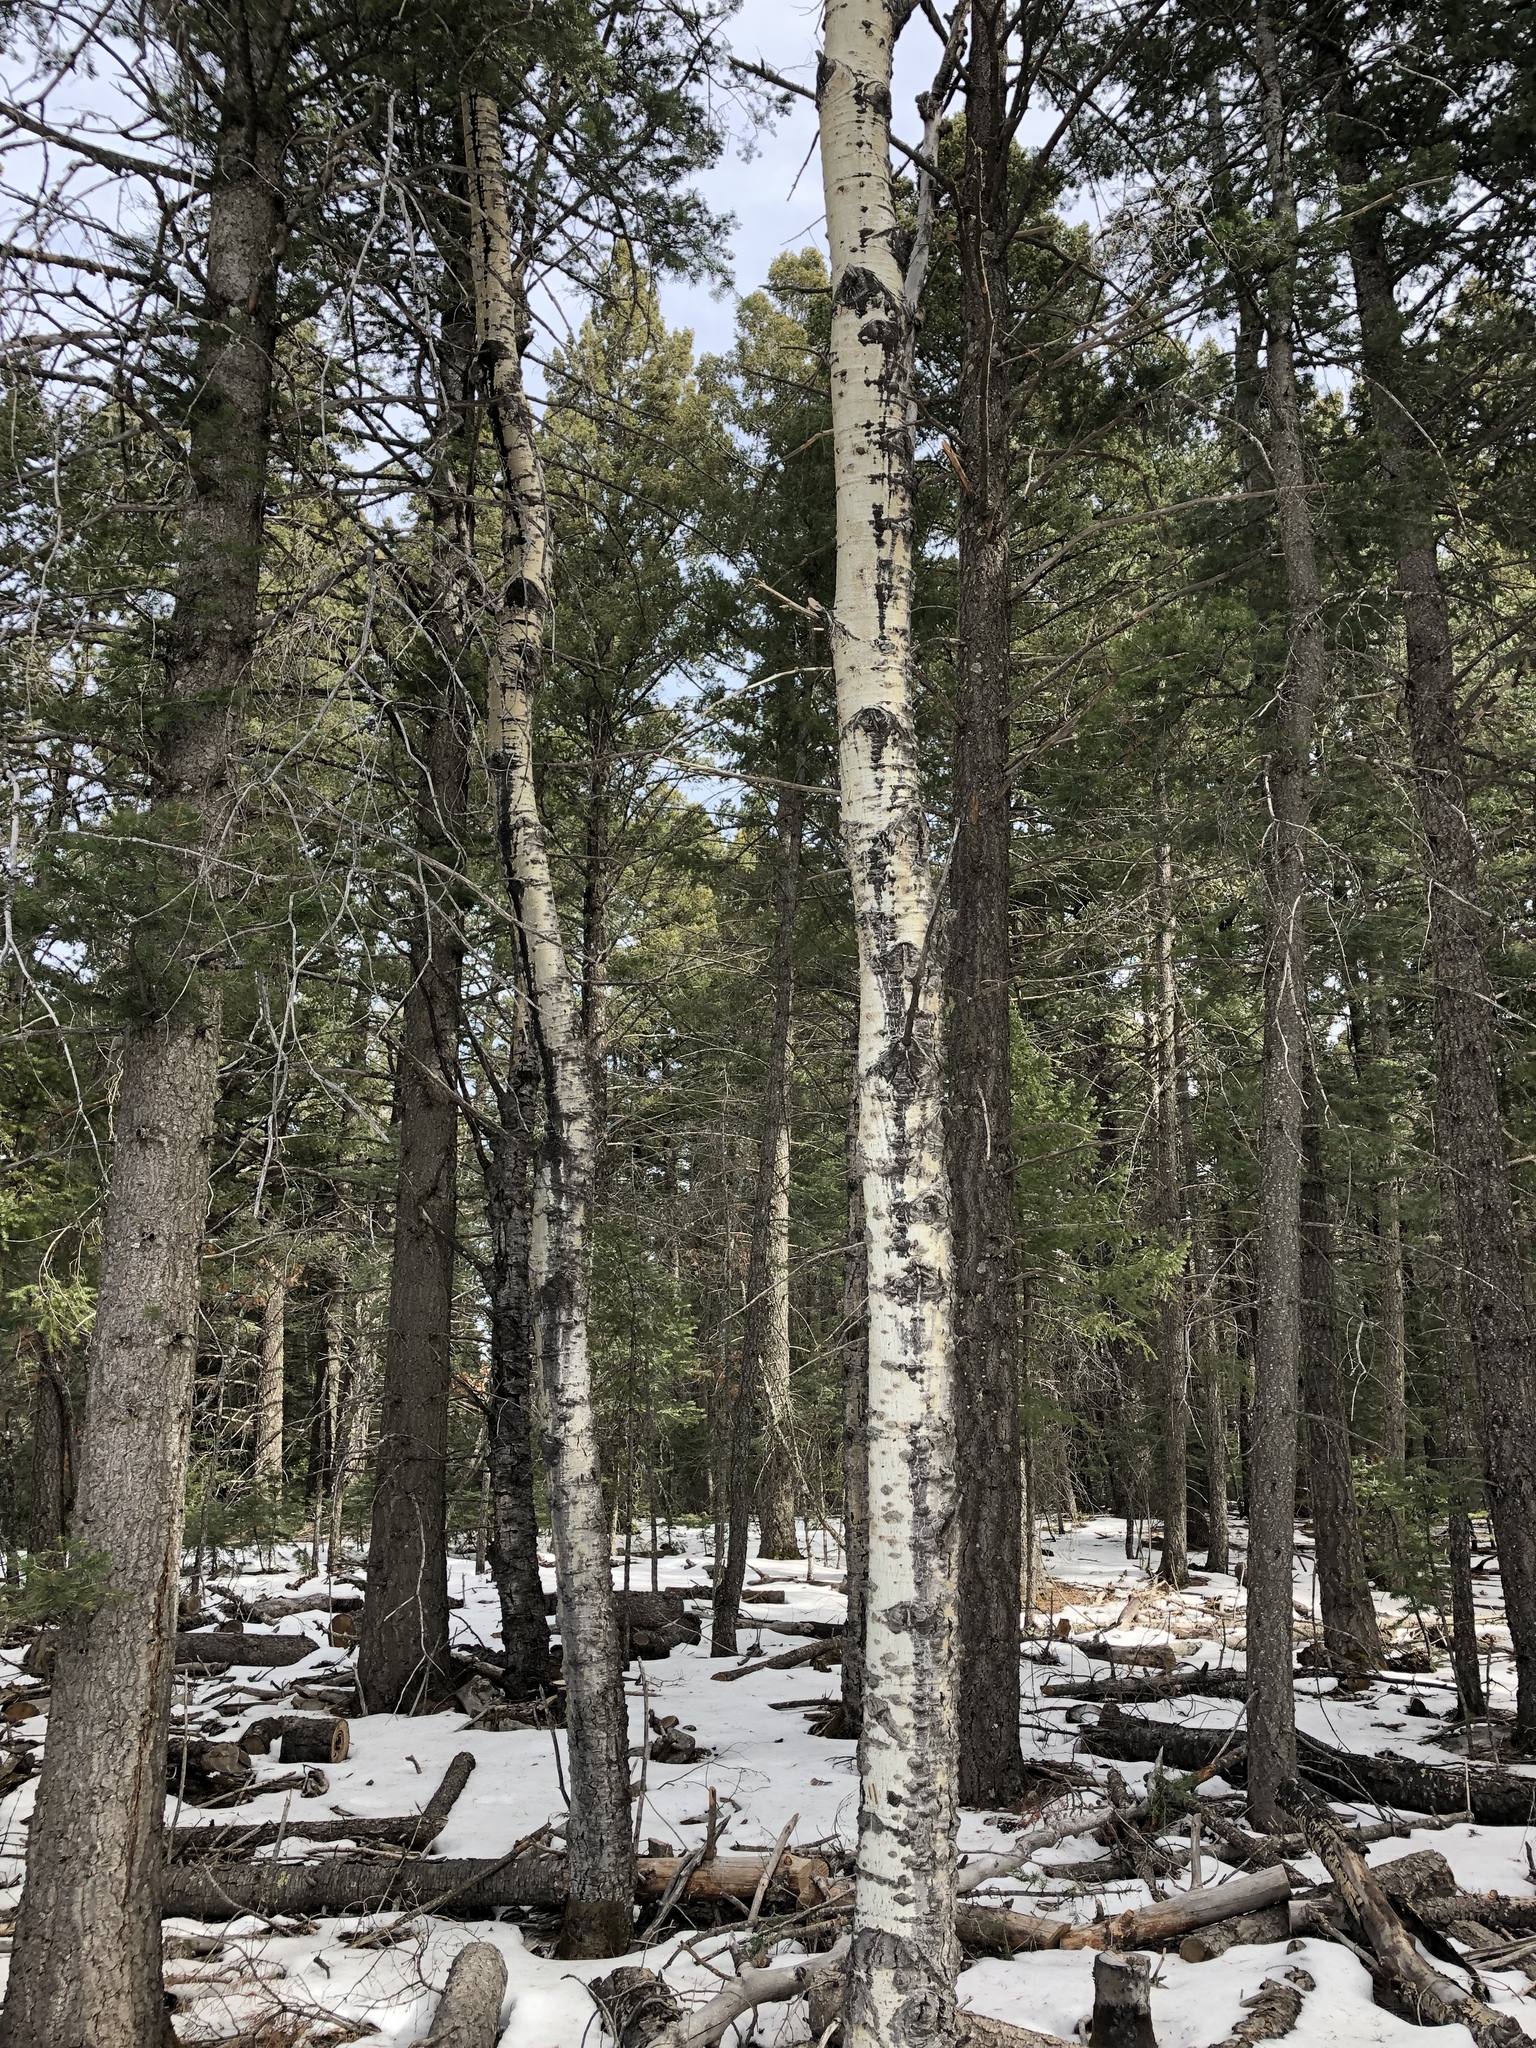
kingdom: Plantae
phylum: Tracheophyta
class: Magnoliopsida
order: Malpighiales
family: Salicaceae
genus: Populus
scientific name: Populus tremuloides
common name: Quaking aspen
